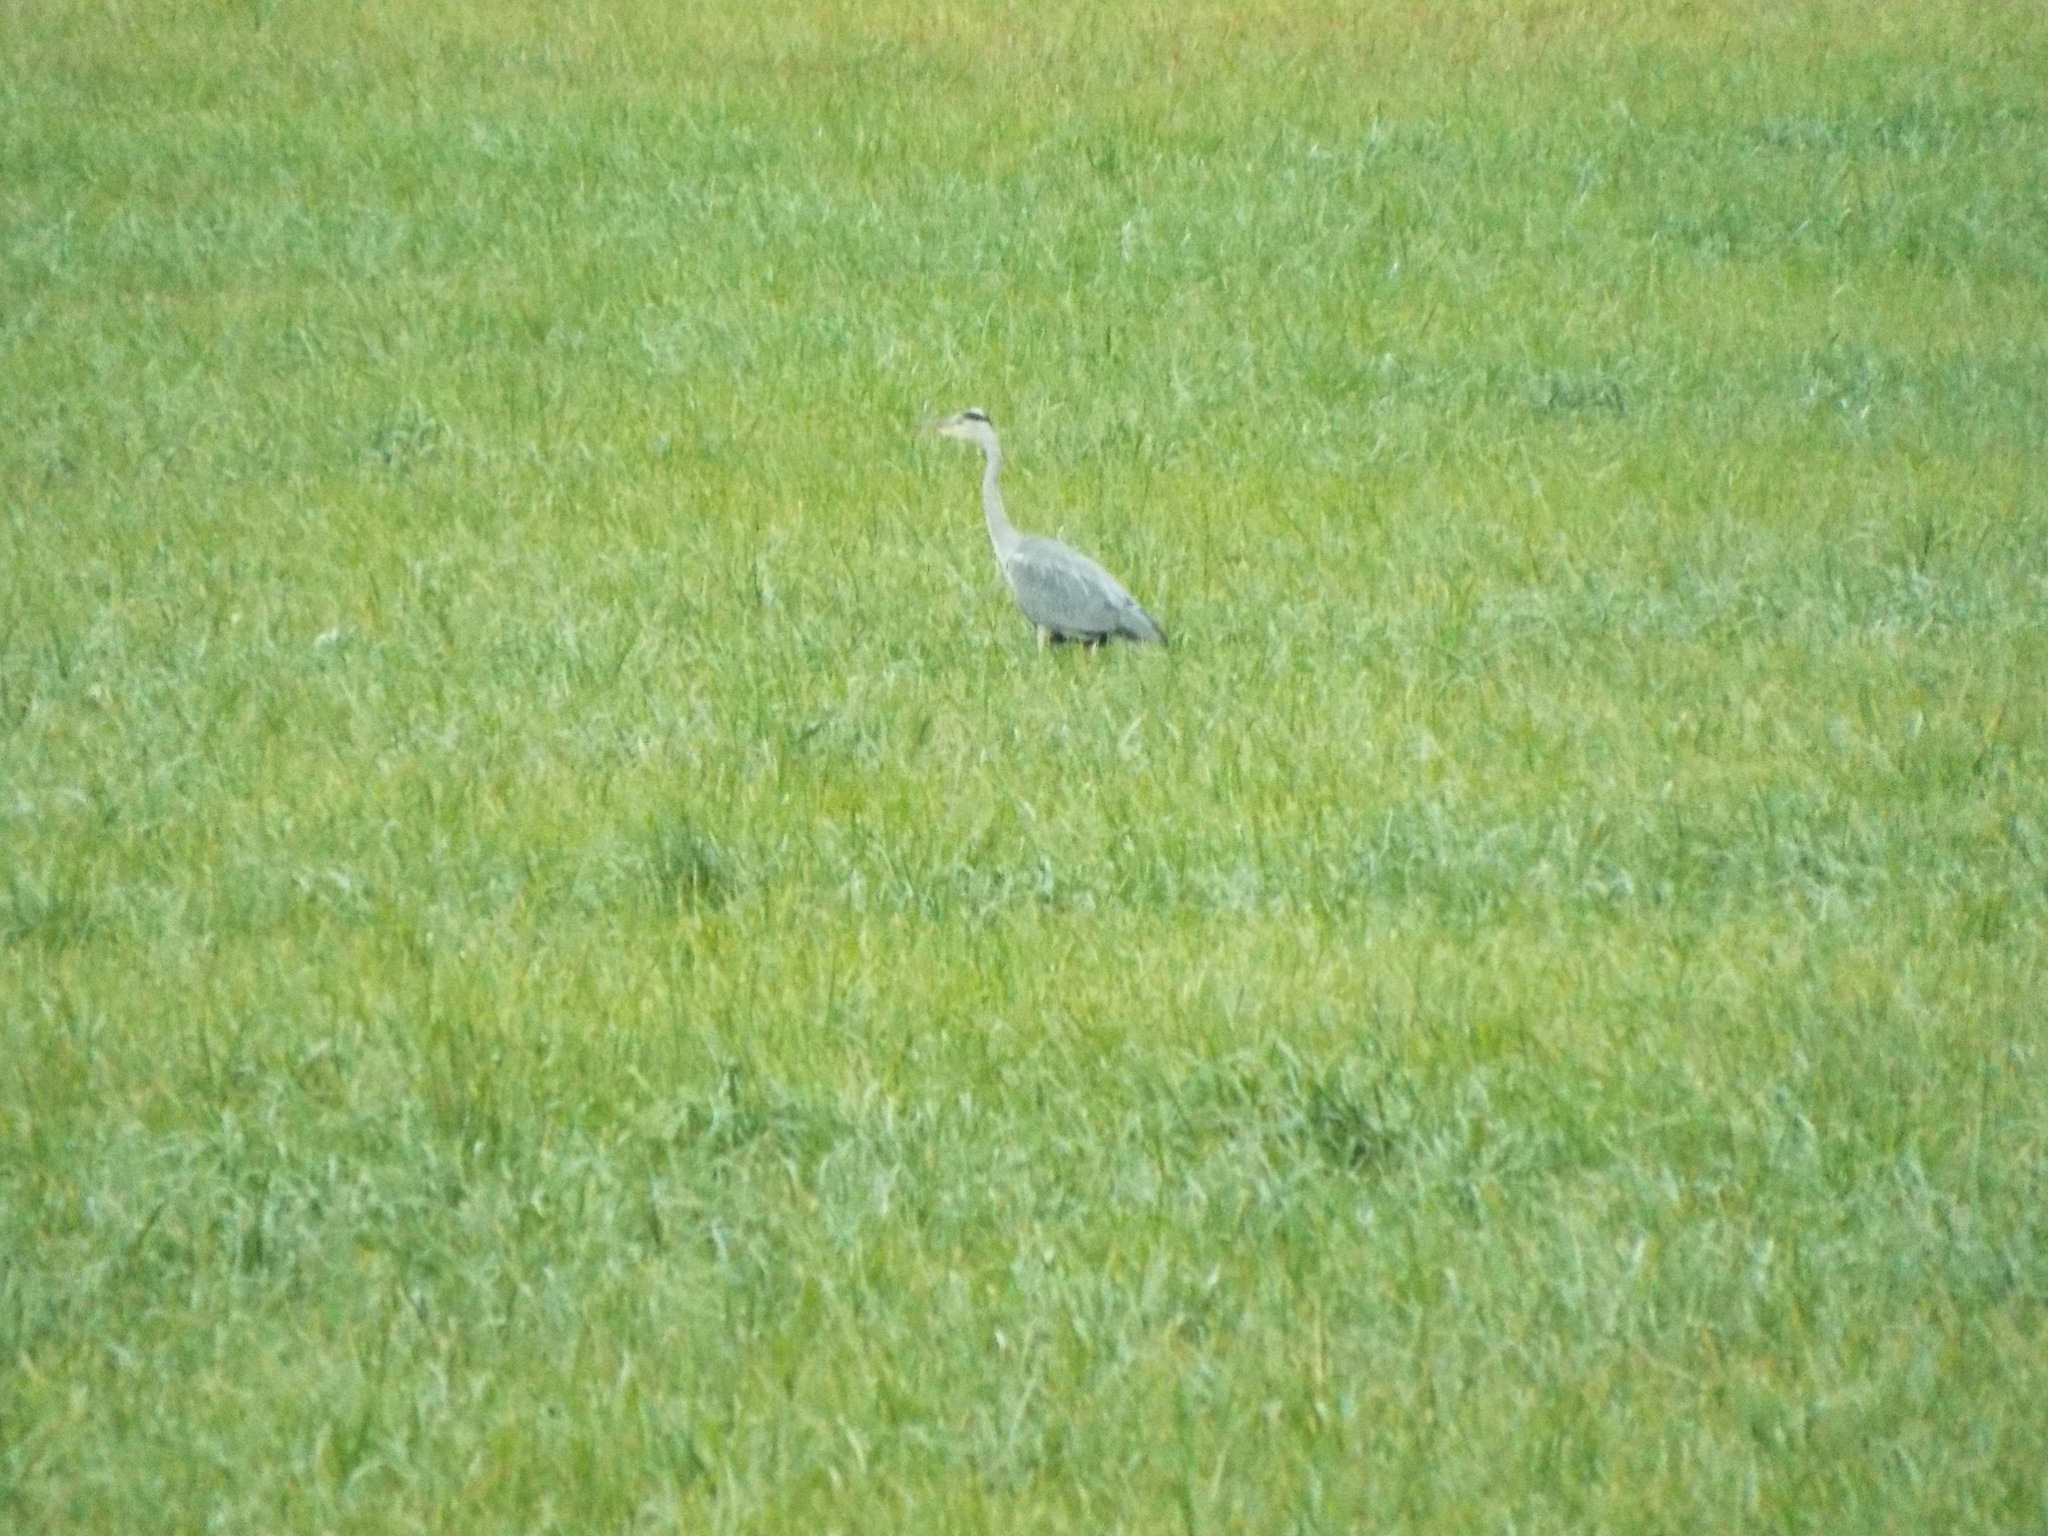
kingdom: Animalia
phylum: Chordata
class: Aves
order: Pelecaniformes
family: Ardeidae
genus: Ardea
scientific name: Ardea cinerea
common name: Grey heron
